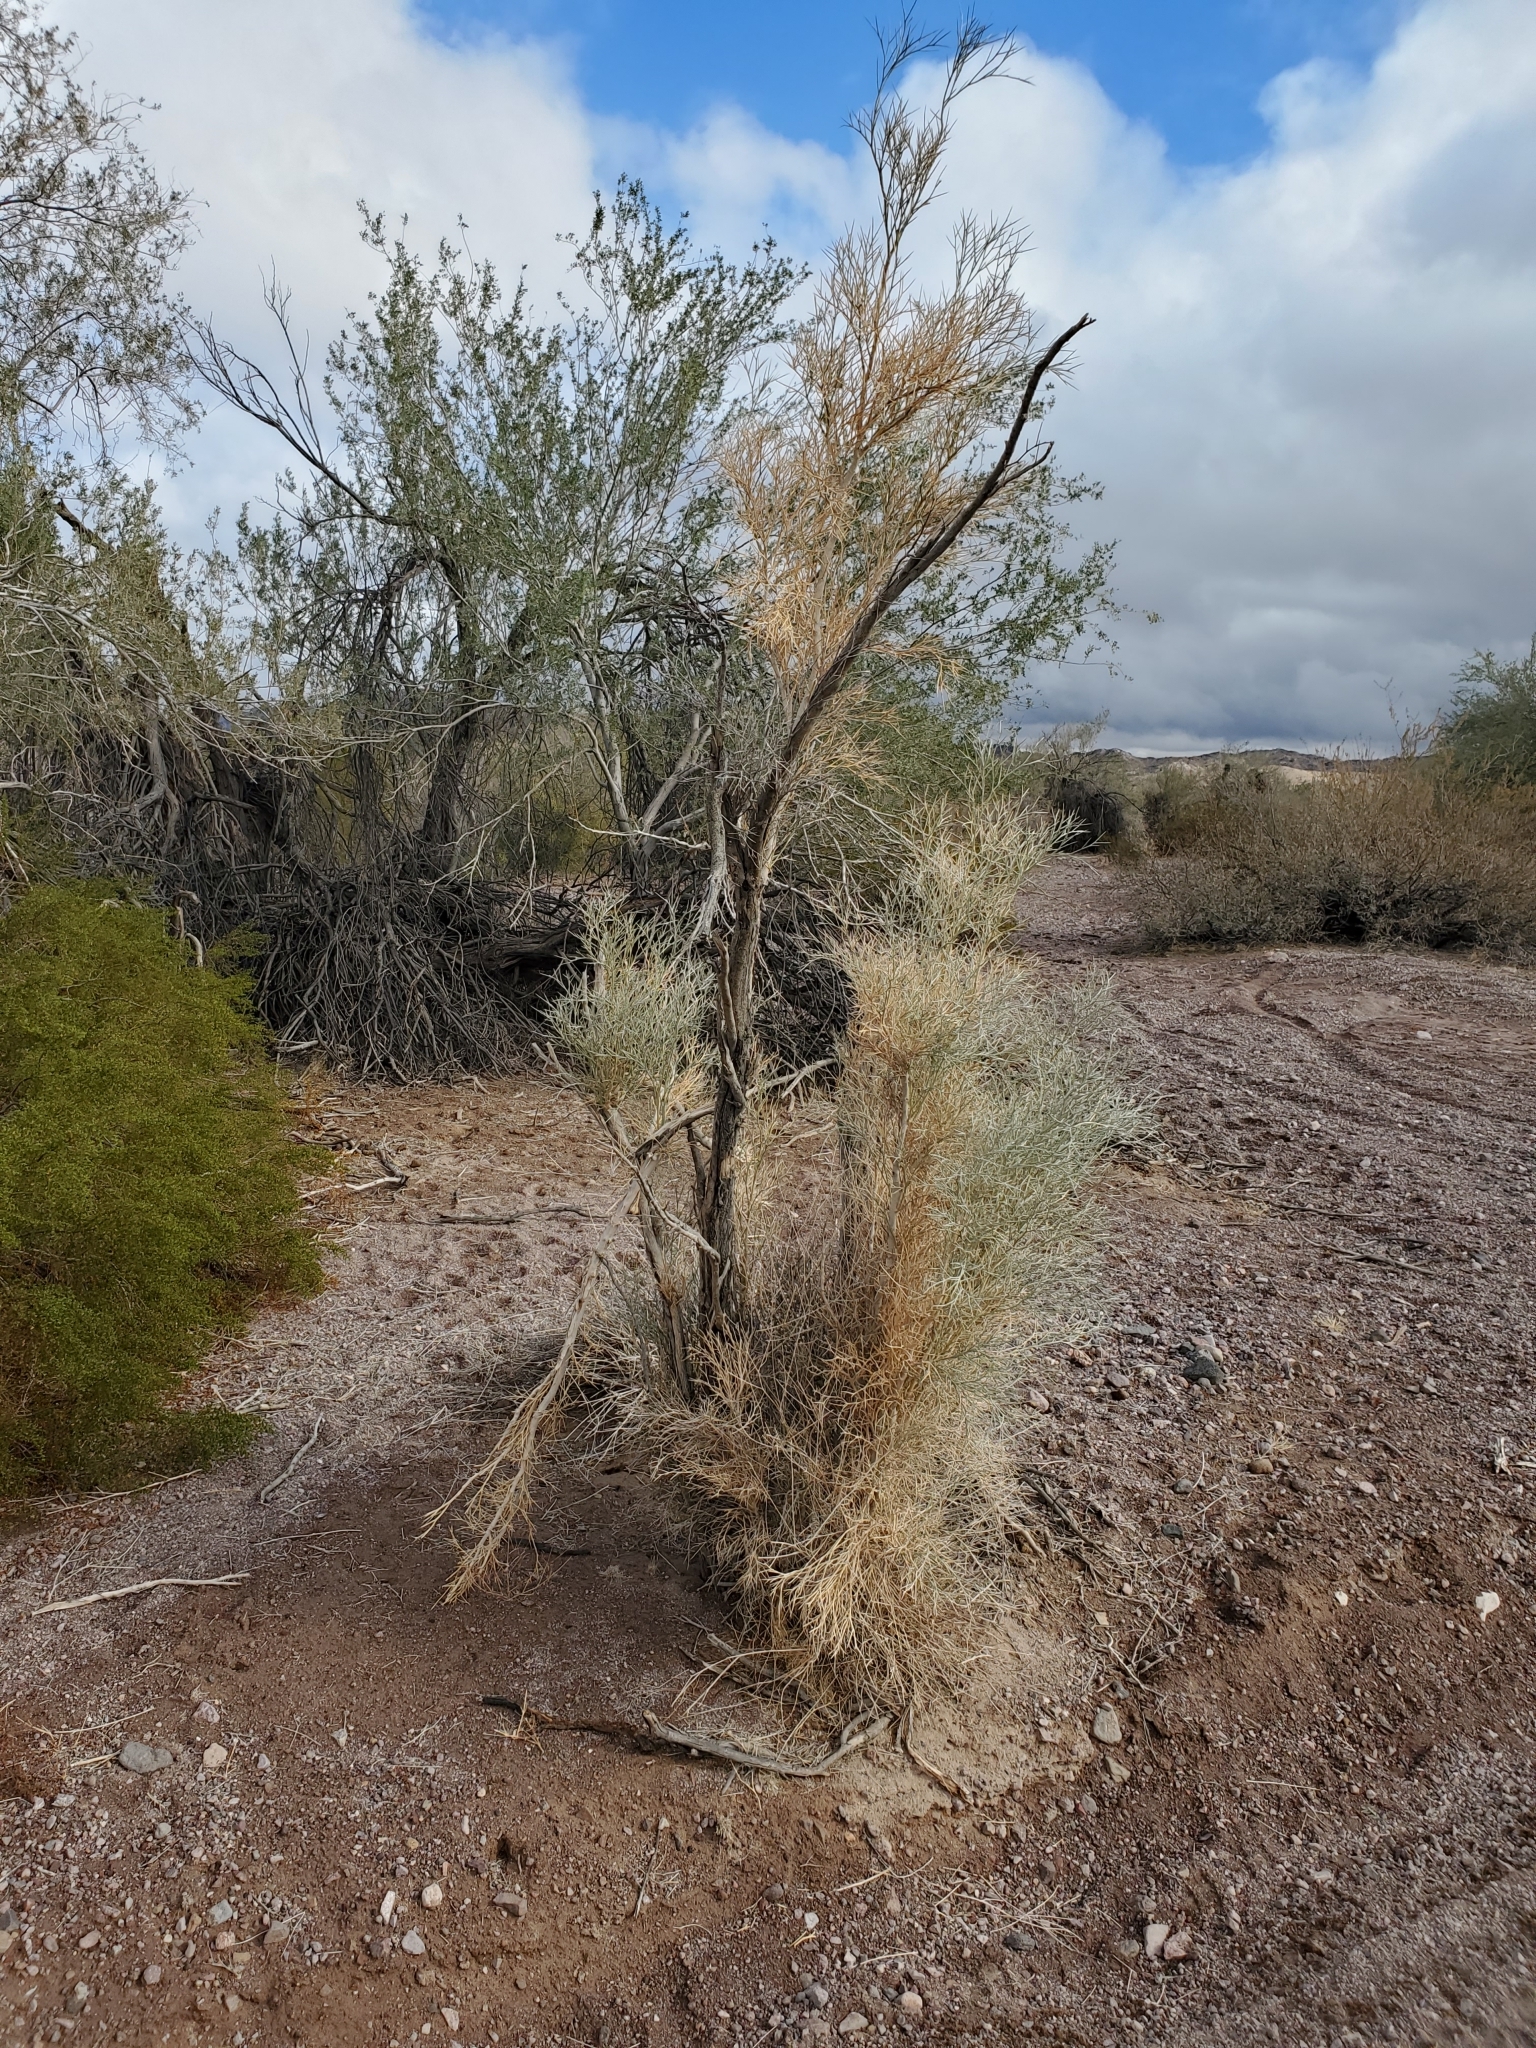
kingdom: Plantae
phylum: Tracheophyta
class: Magnoliopsida
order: Fabales
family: Fabaceae
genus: Psorothamnus
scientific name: Psorothamnus spinosus
